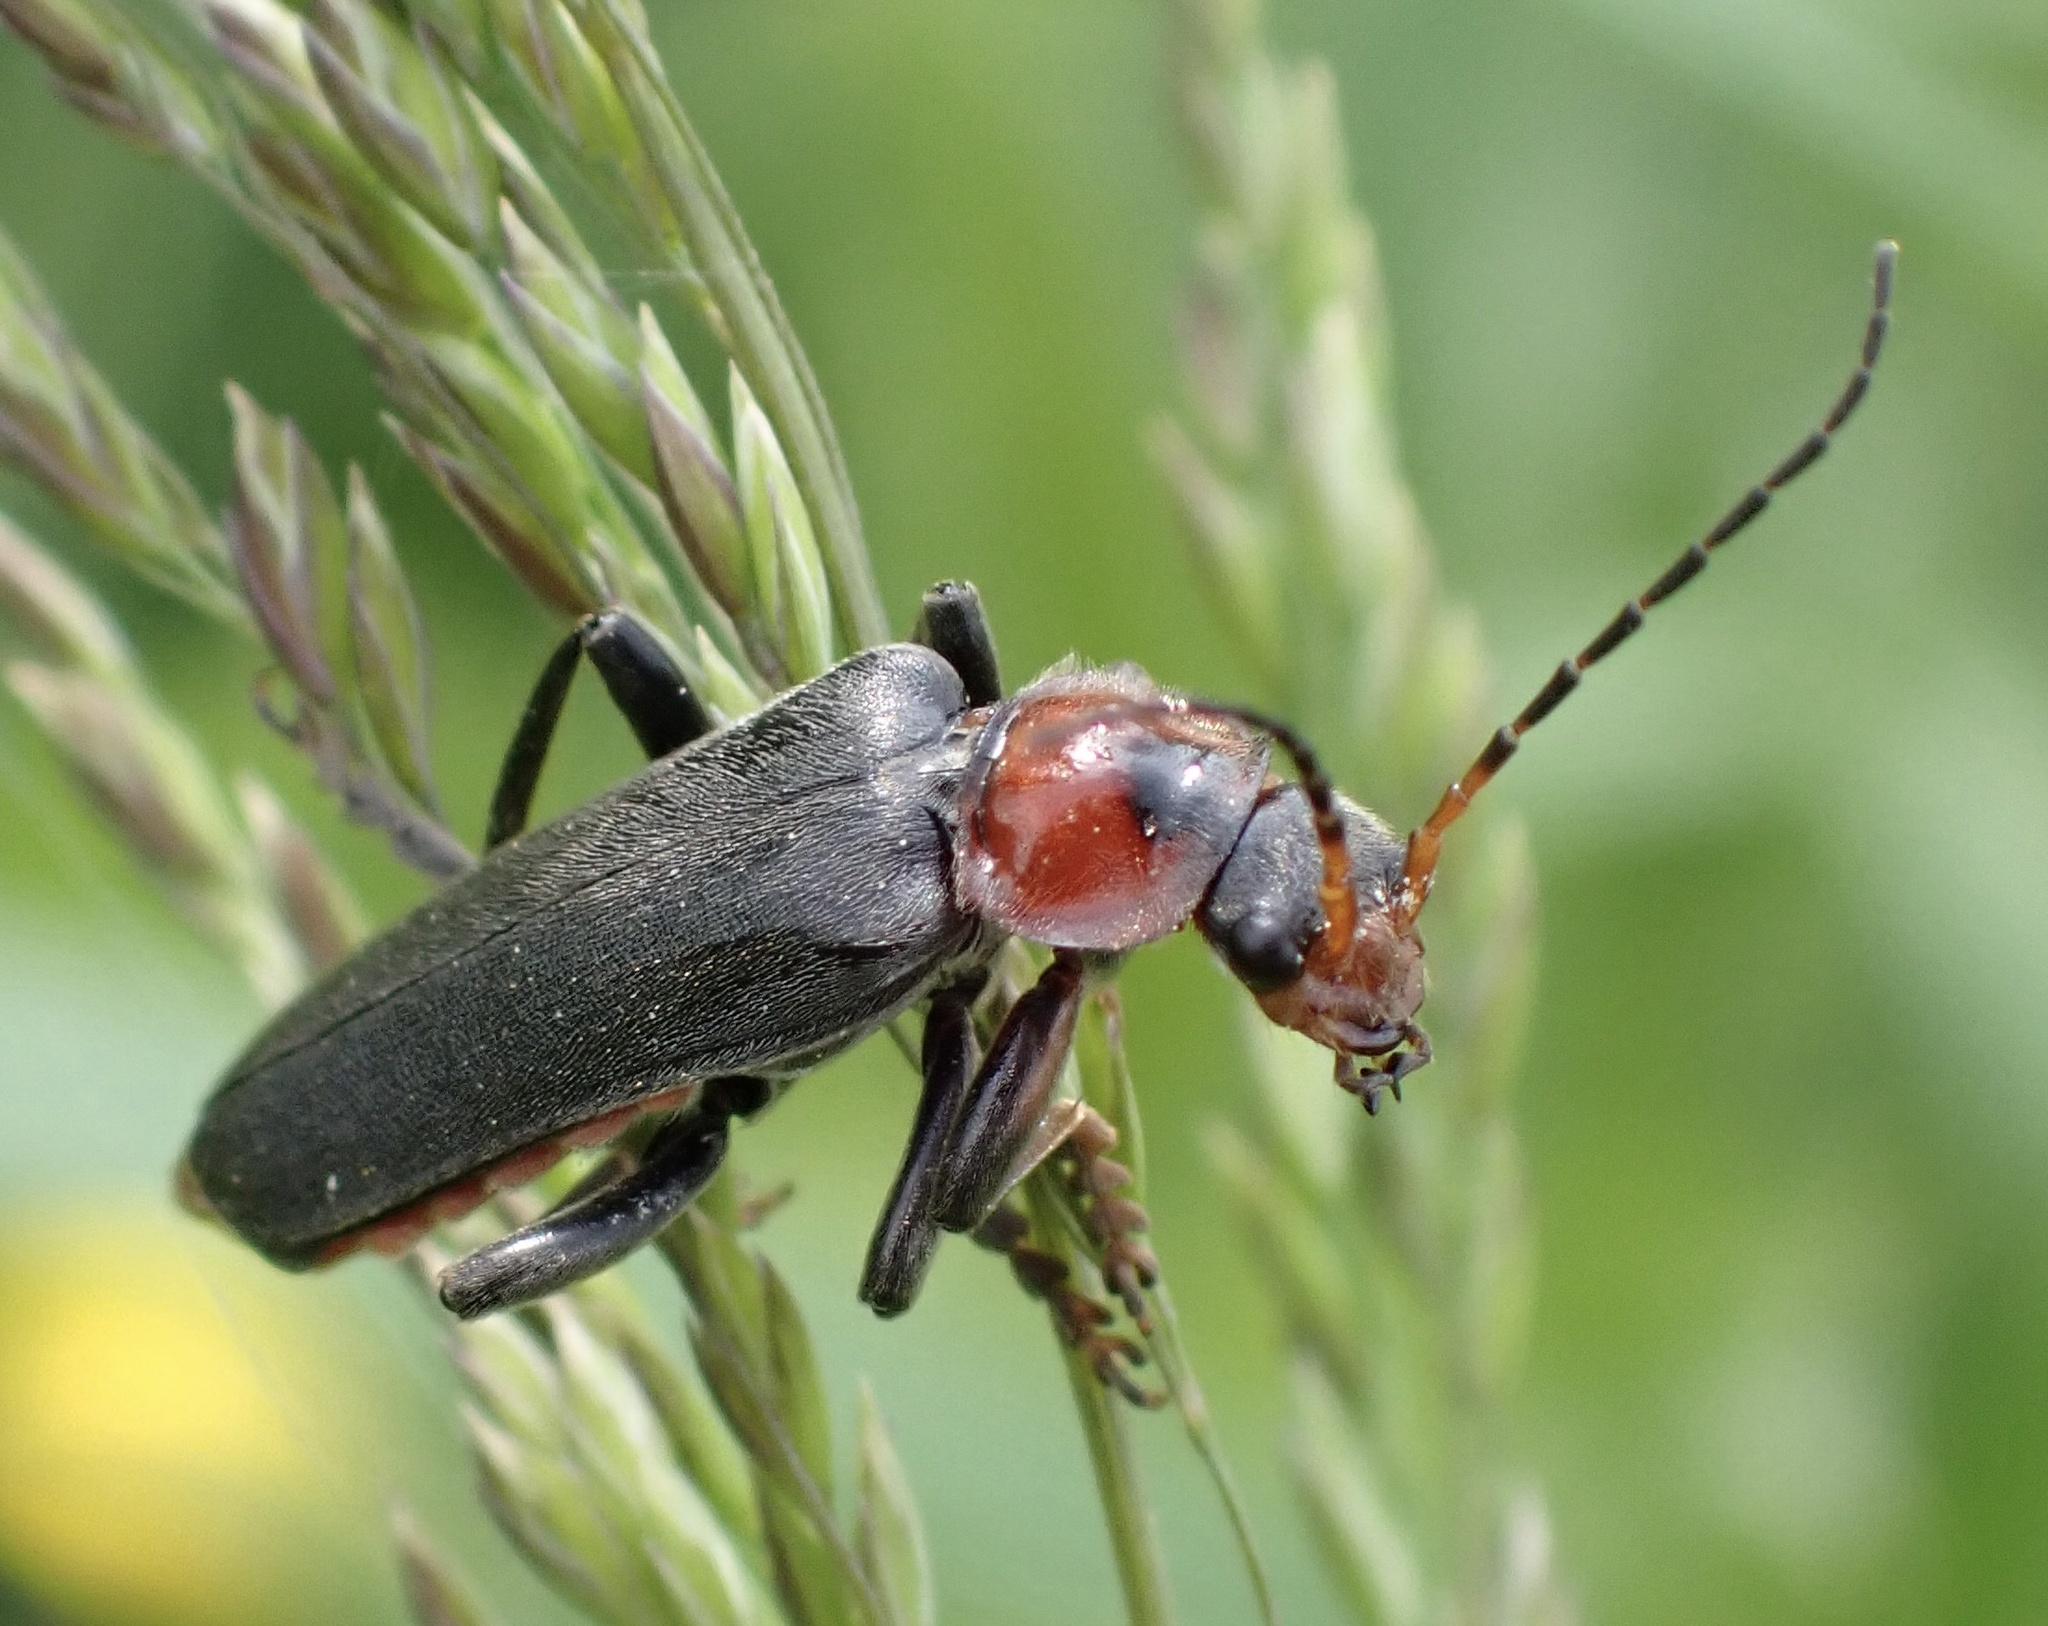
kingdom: Animalia
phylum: Arthropoda
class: Insecta
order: Coleoptera
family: Cantharidae
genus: Cantharis
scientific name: Cantharis fusca
